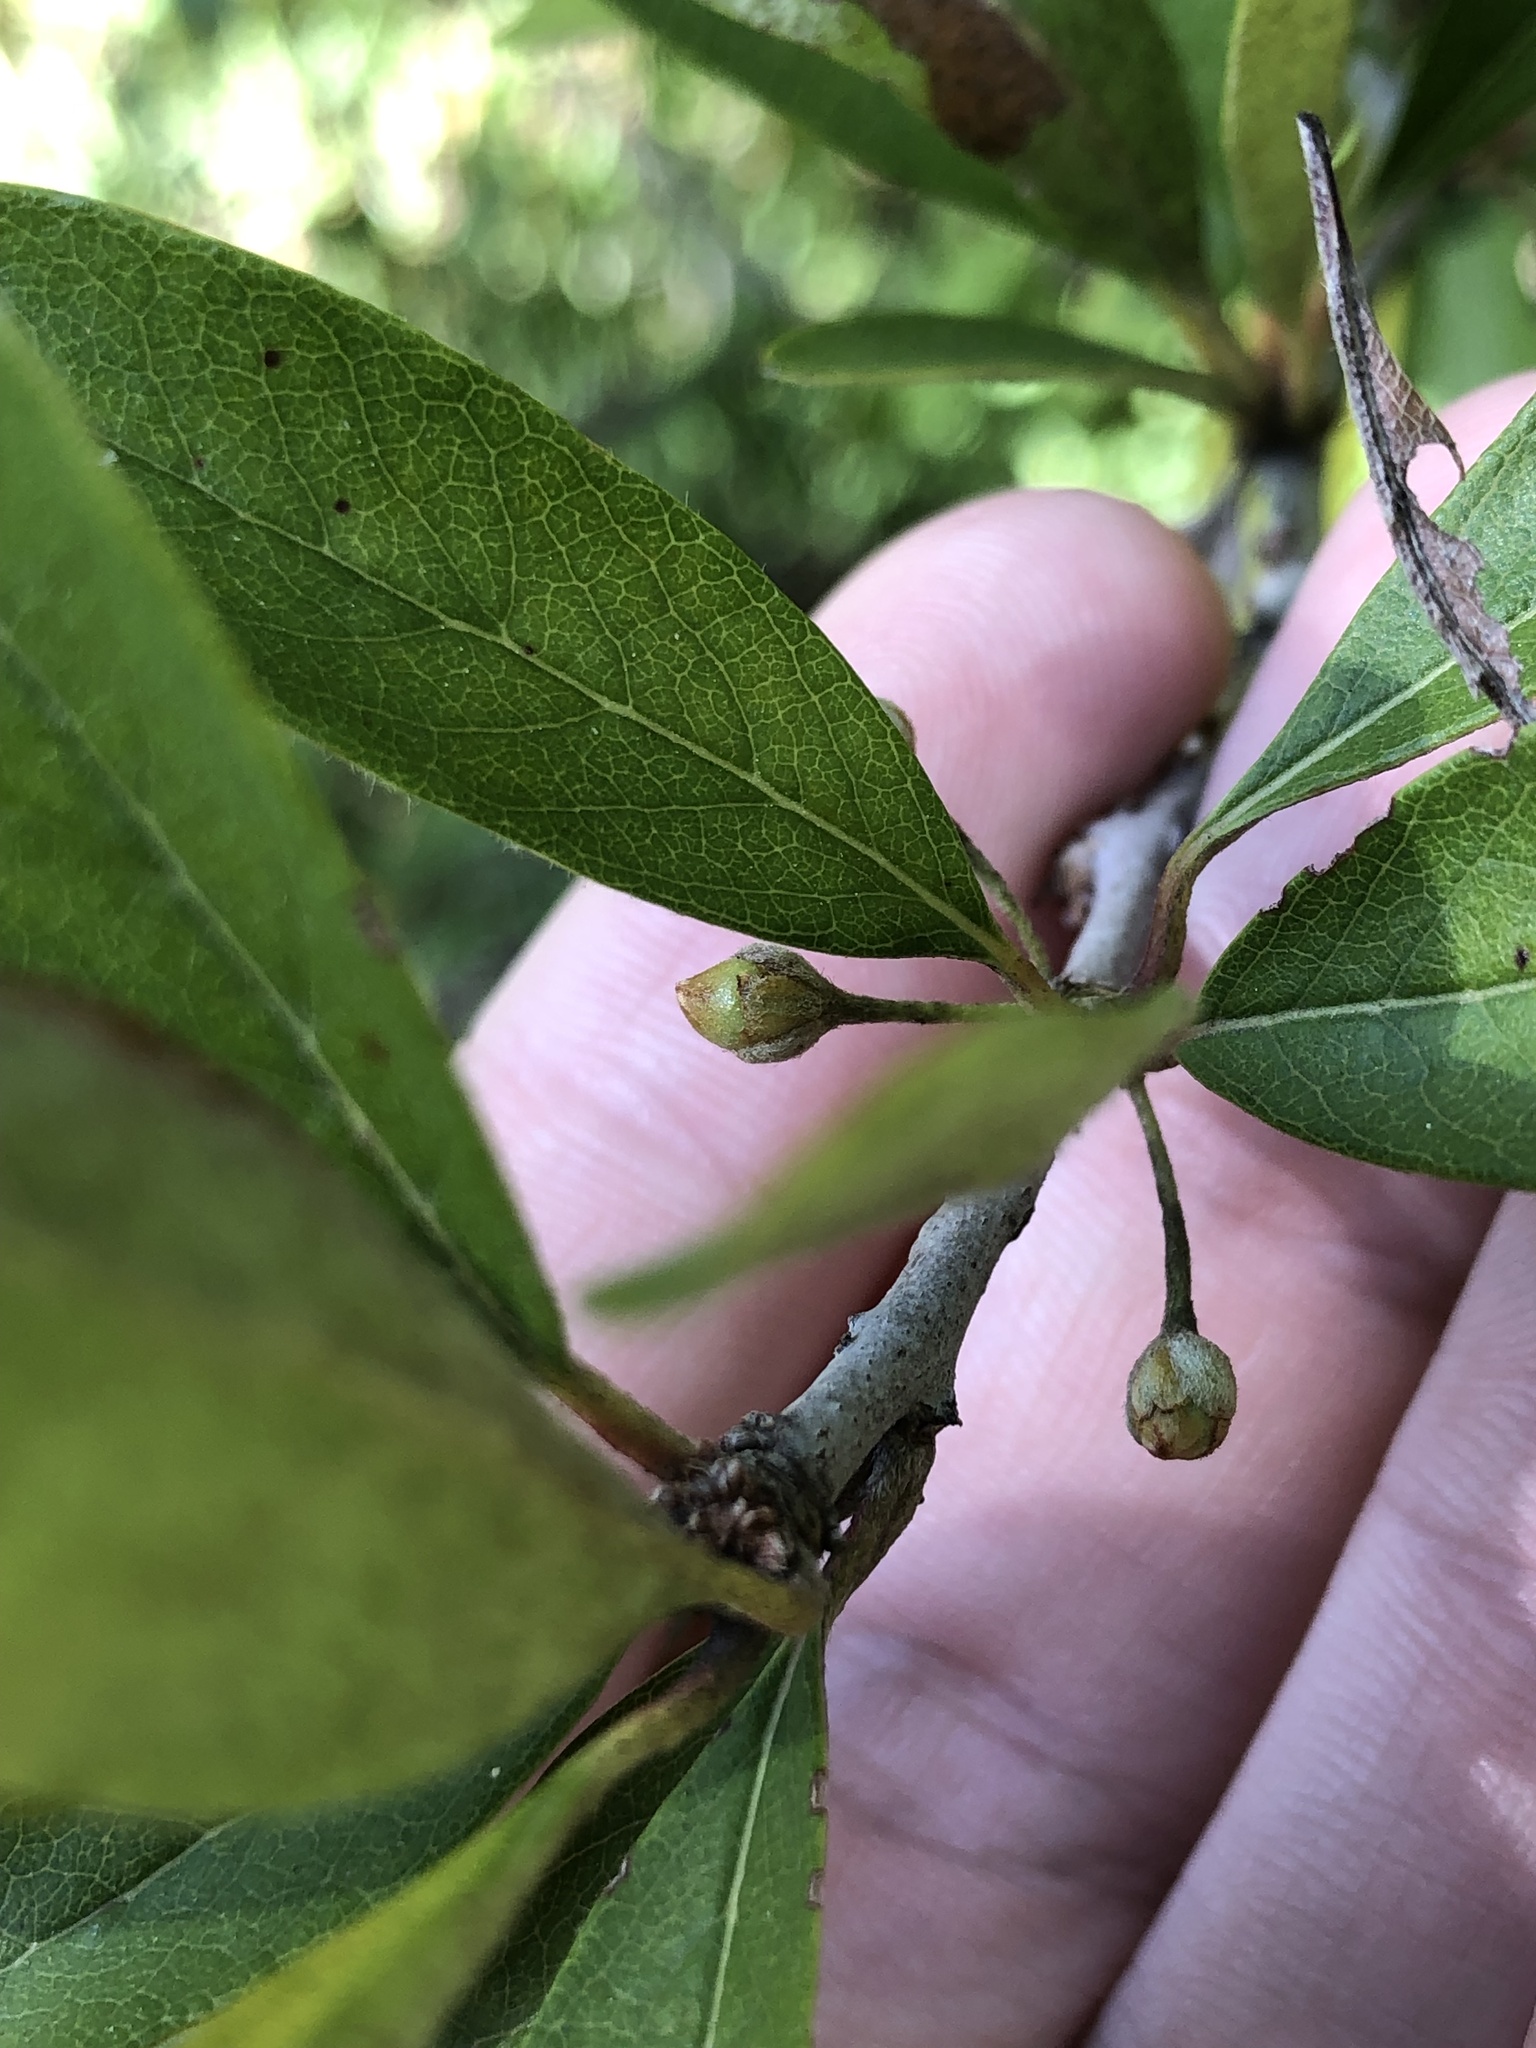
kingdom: Plantae
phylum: Tracheophyta
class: Magnoliopsida
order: Ericales
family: Sapotaceae
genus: Sideroxylon
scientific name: Sideroxylon lanuginosum
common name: Chittamwood
